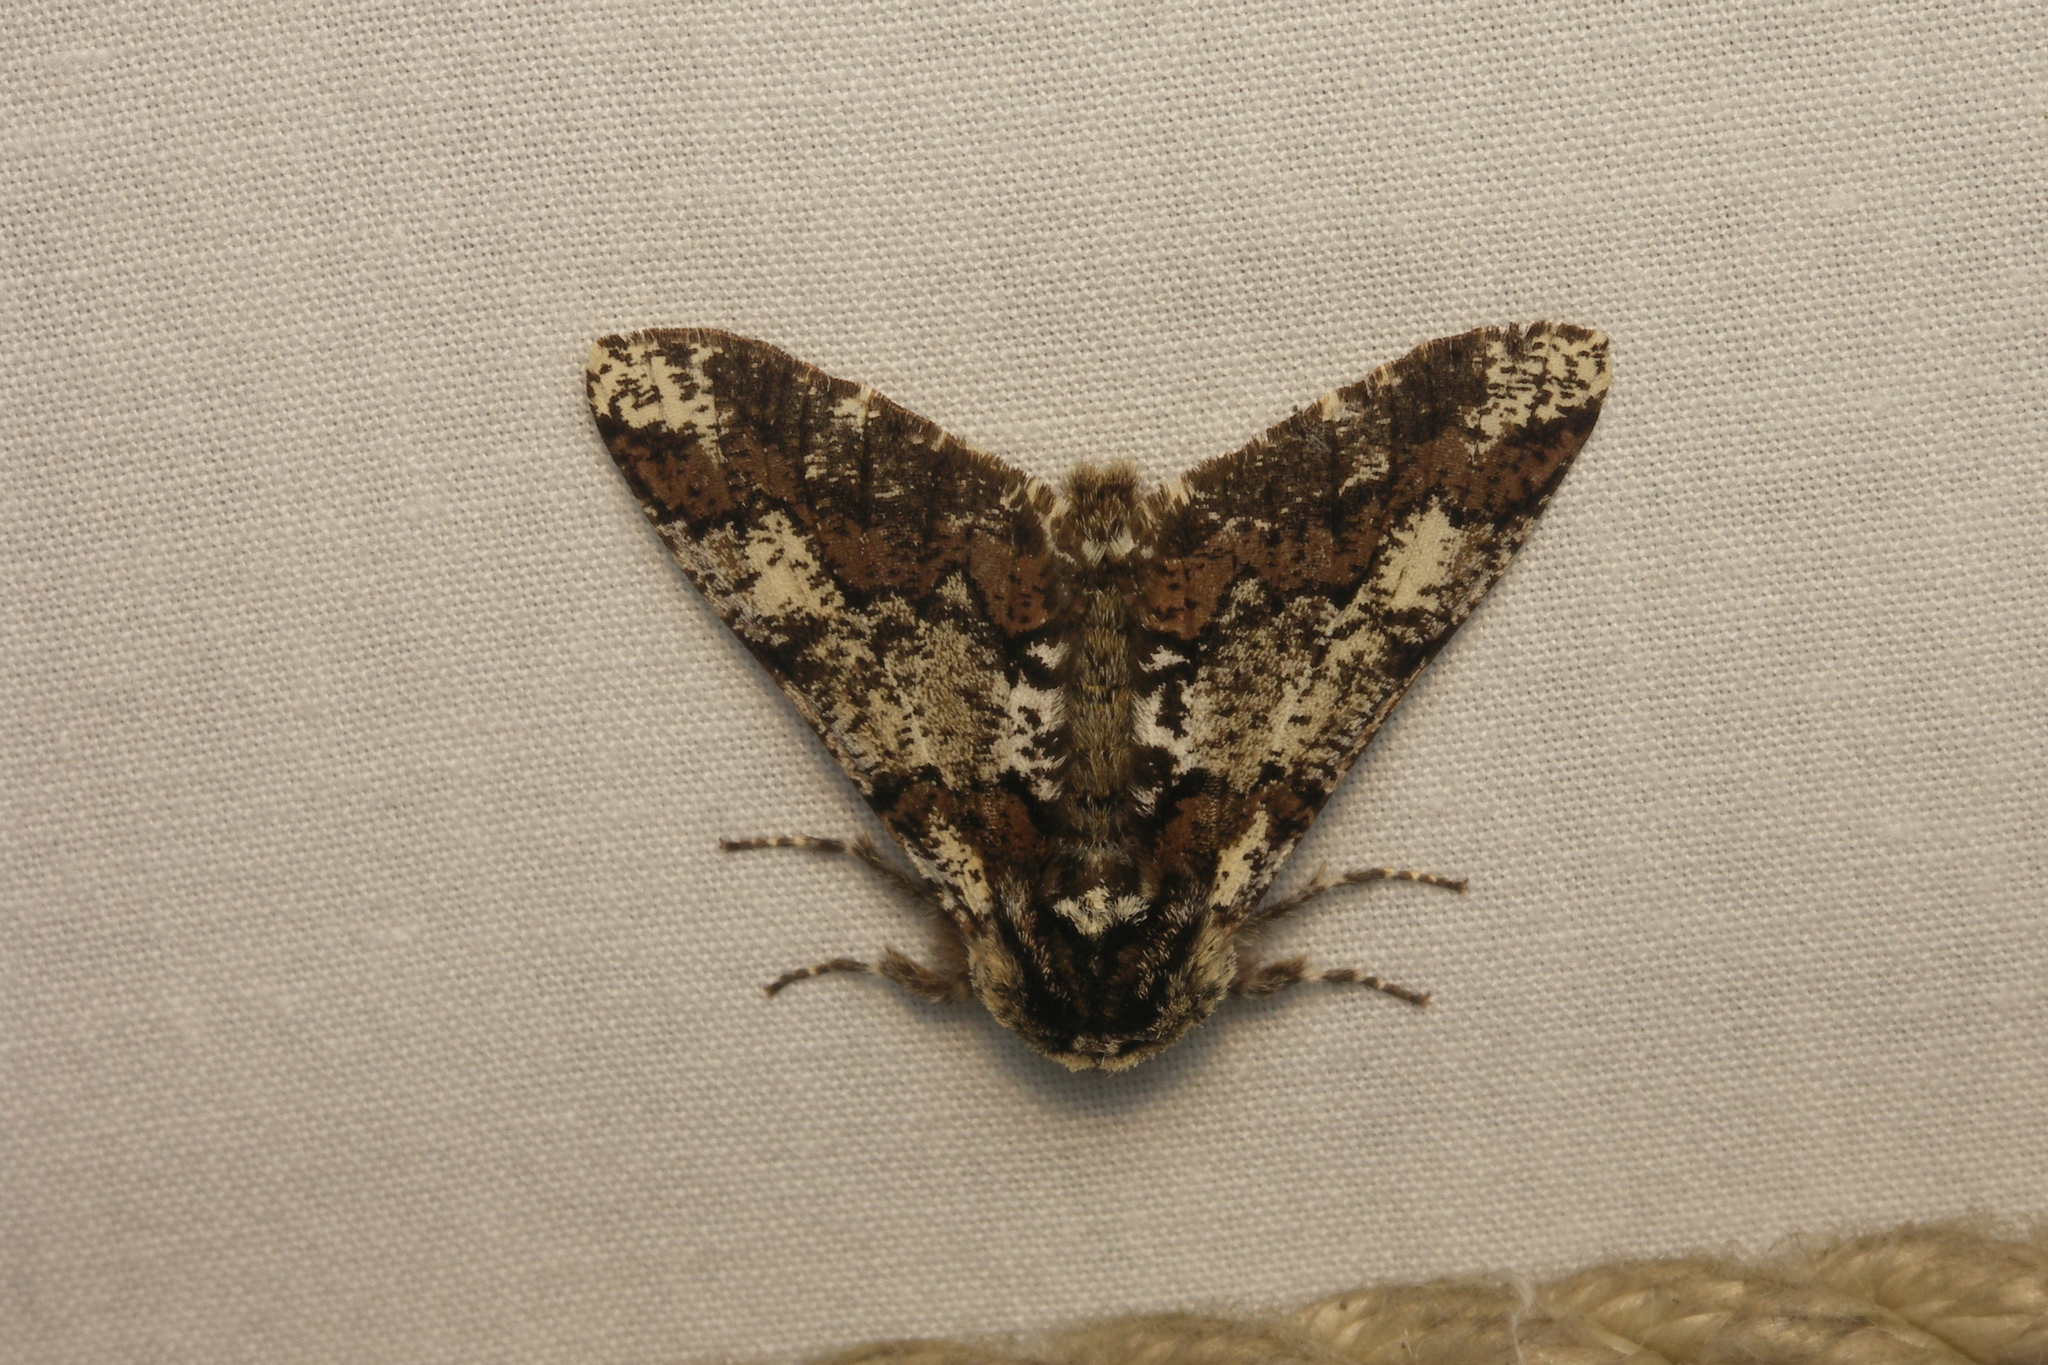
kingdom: Animalia
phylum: Arthropoda
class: Insecta
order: Lepidoptera
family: Geometridae
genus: Biston
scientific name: Biston strataria
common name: Oak beauty
